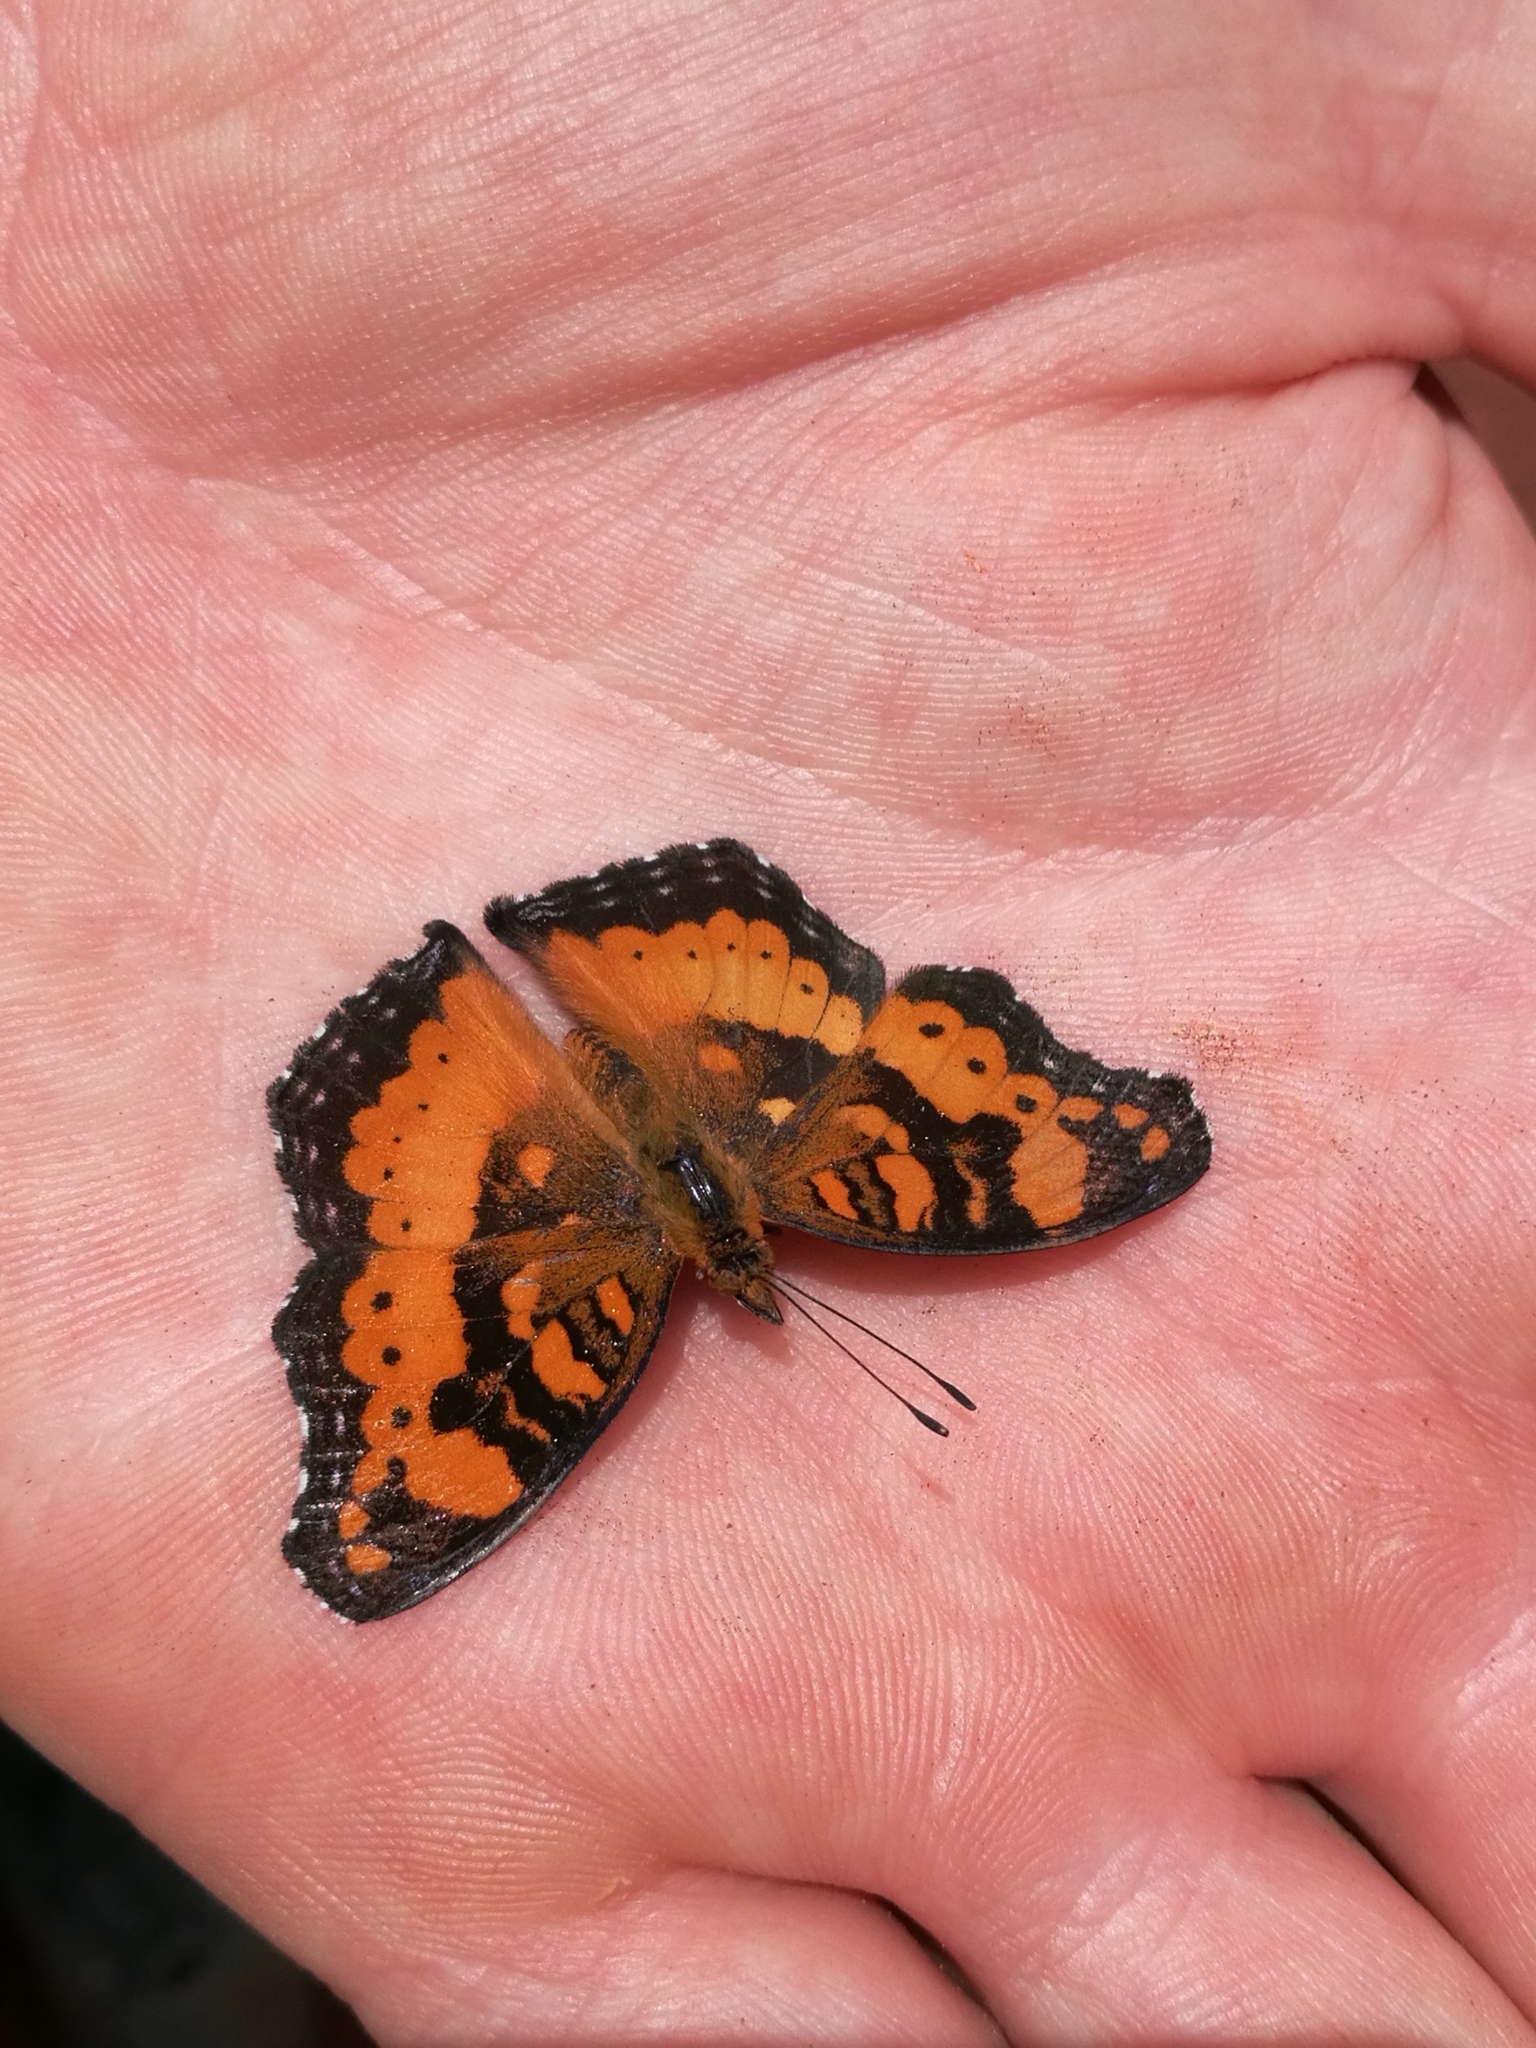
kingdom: Animalia
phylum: Arthropoda
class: Insecta
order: Lepidoptera
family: Nymphalidae
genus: Junonia
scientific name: Junonia antilope
